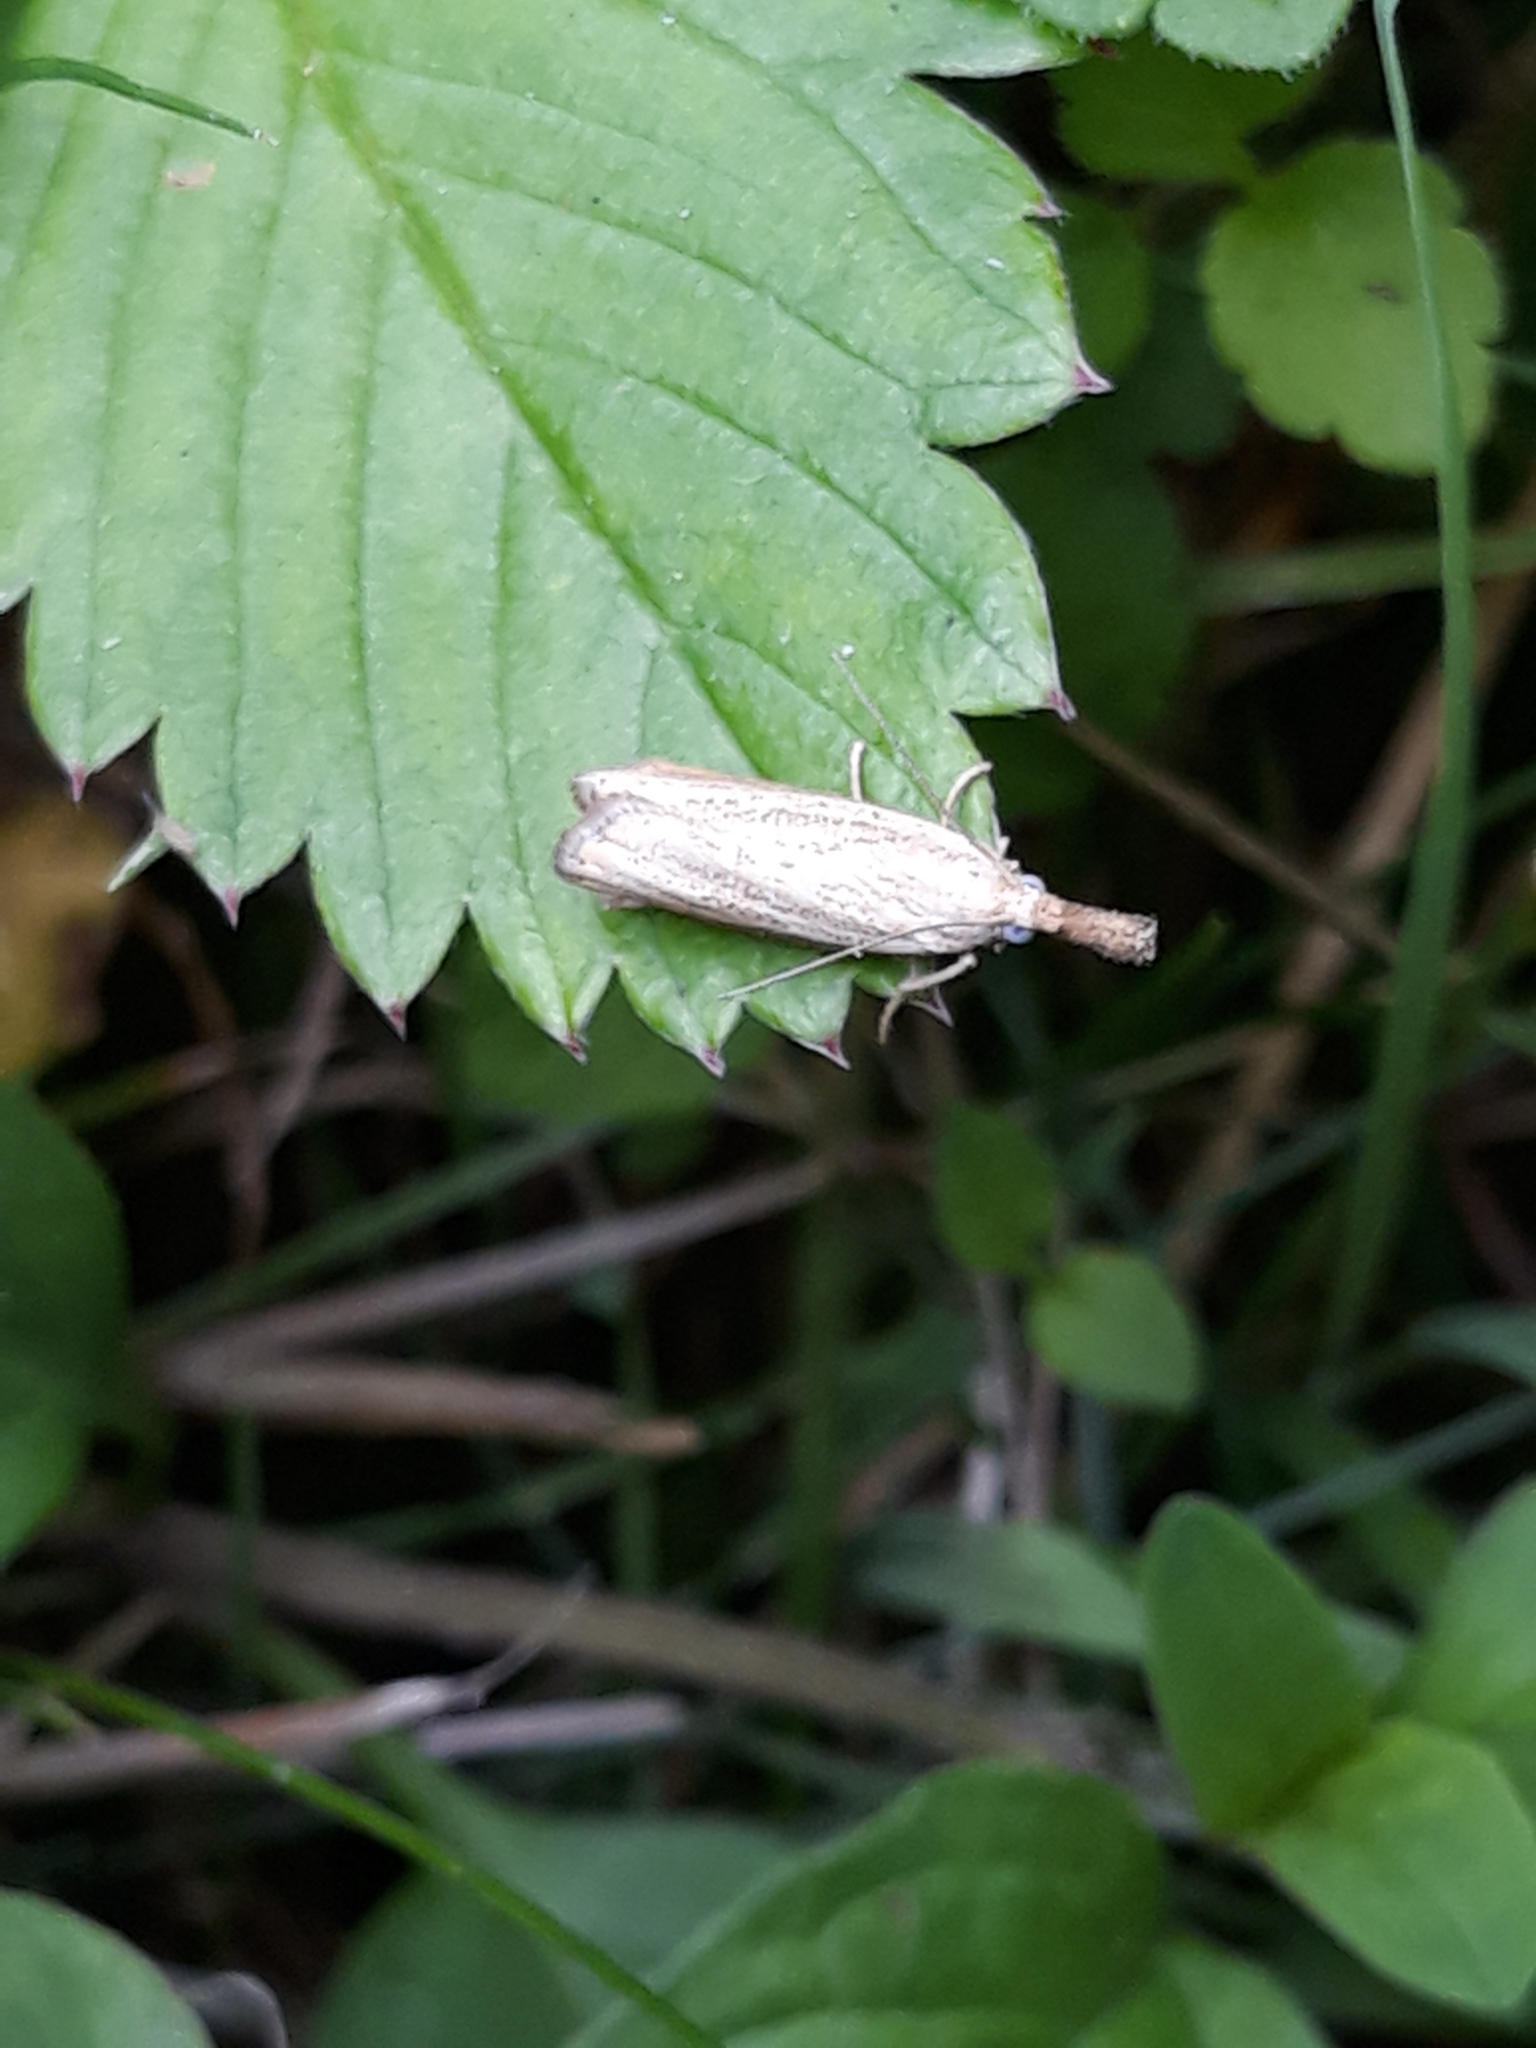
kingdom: Animalia
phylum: Arthropoda
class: Insecta
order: Lepidoptera
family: Crambidae
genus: Agriphila
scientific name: Agriphila straminella
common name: Straw grass-veneer
